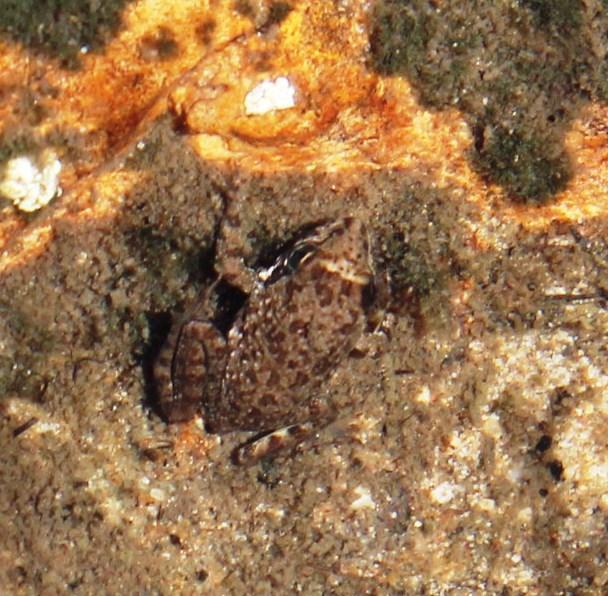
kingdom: Animalia
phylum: Chordata
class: Amphibia
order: Anura
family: Pyxicephalidae
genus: Amietia
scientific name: Amietia fuscigula
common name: Cape rana
